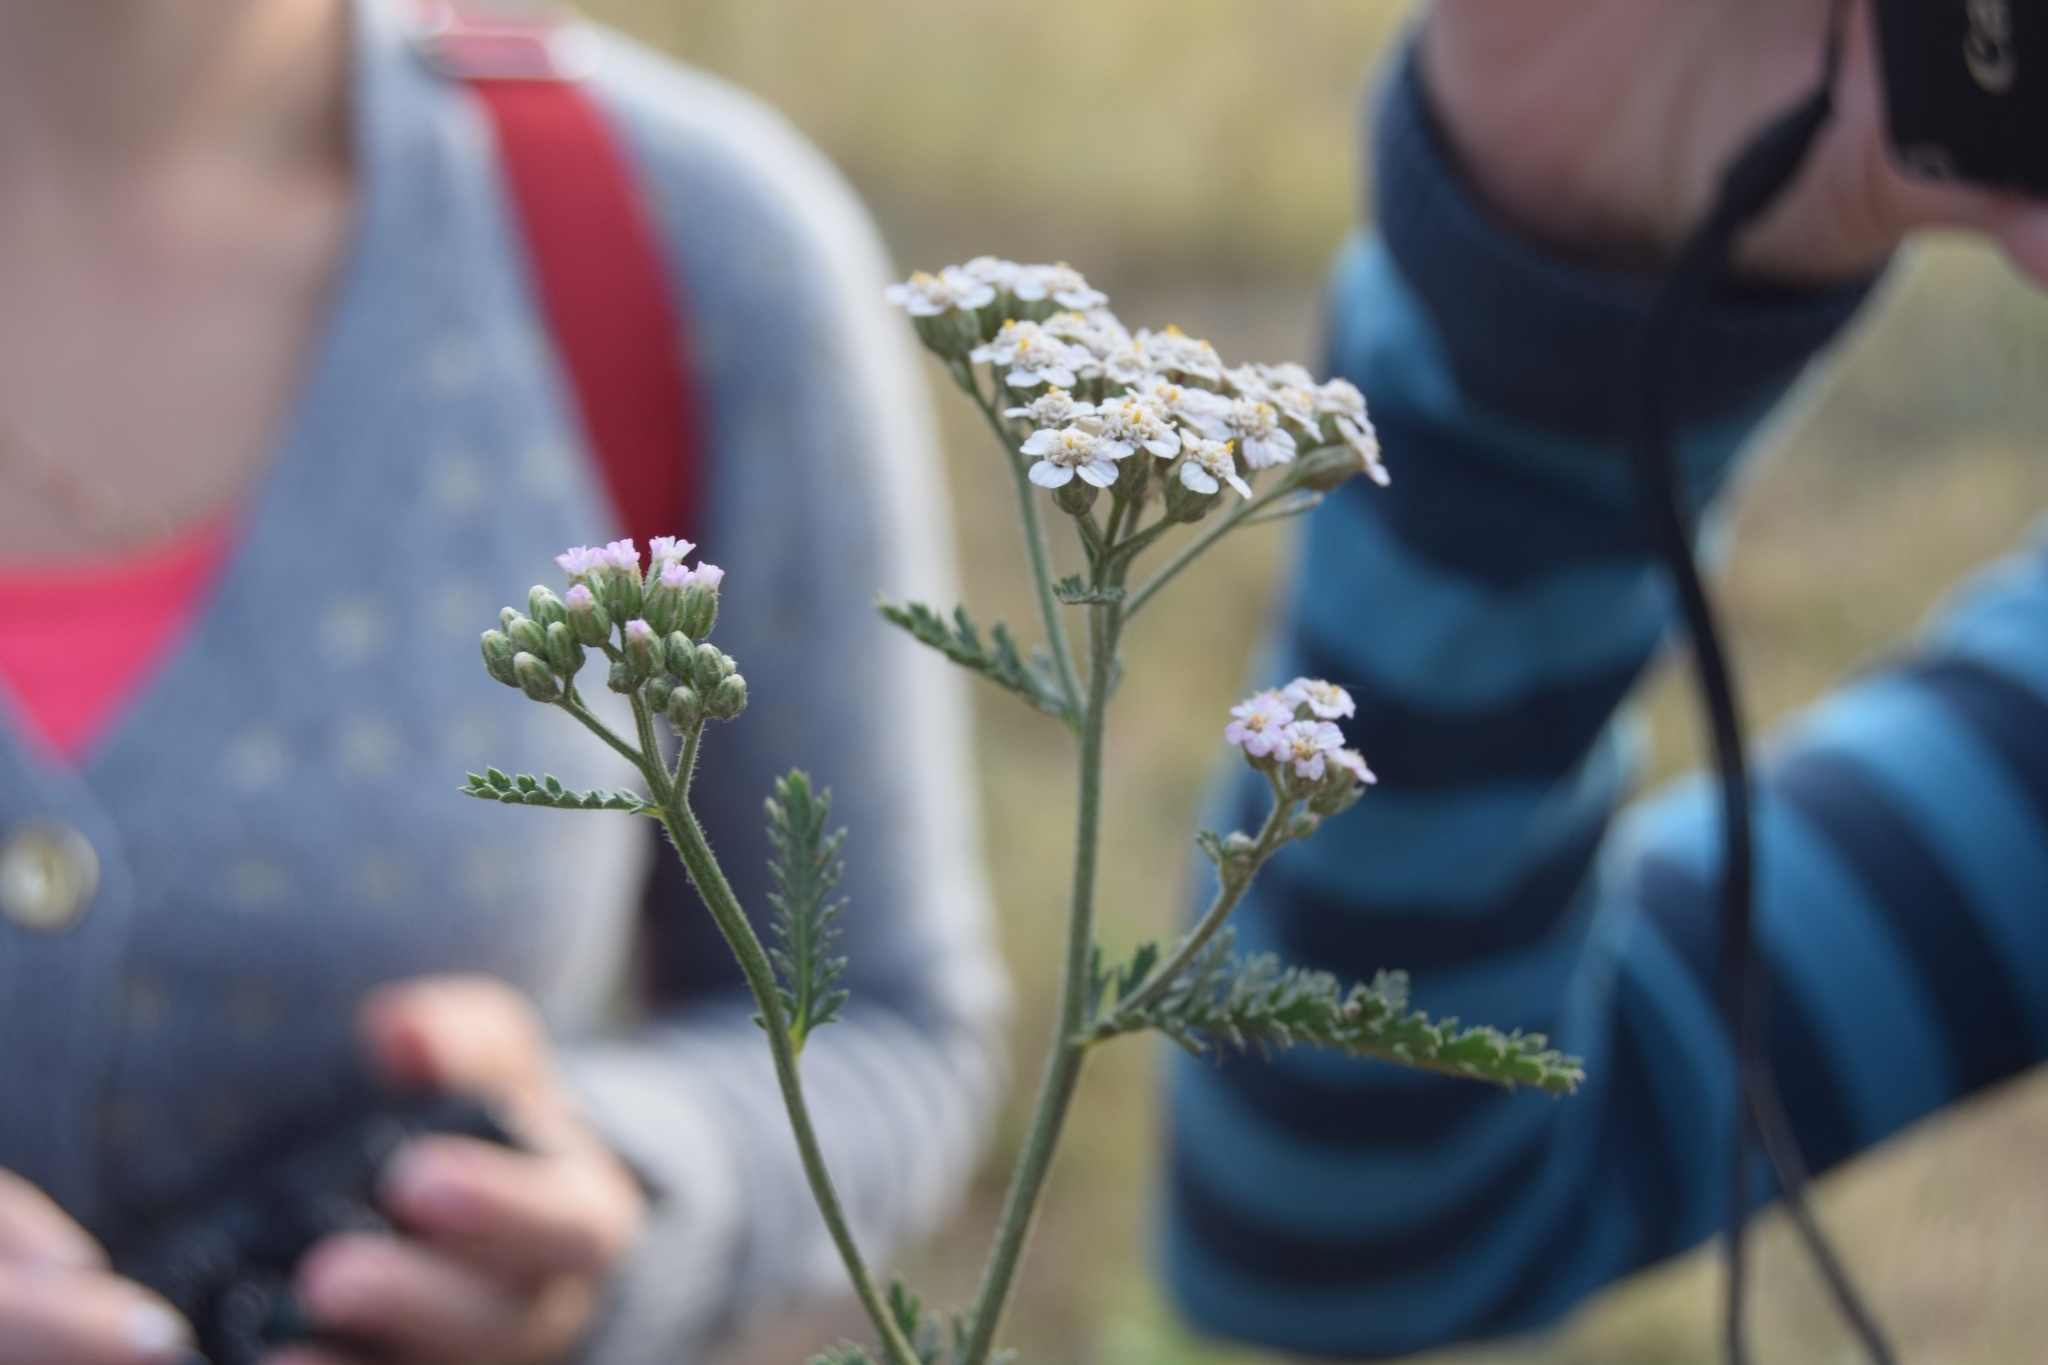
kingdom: Plantae
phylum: Tracheophyta
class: Magnoliopsida
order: Asterales
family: Asteraceae
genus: Achillea
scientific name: Achillea millefolium
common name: Yarrow
